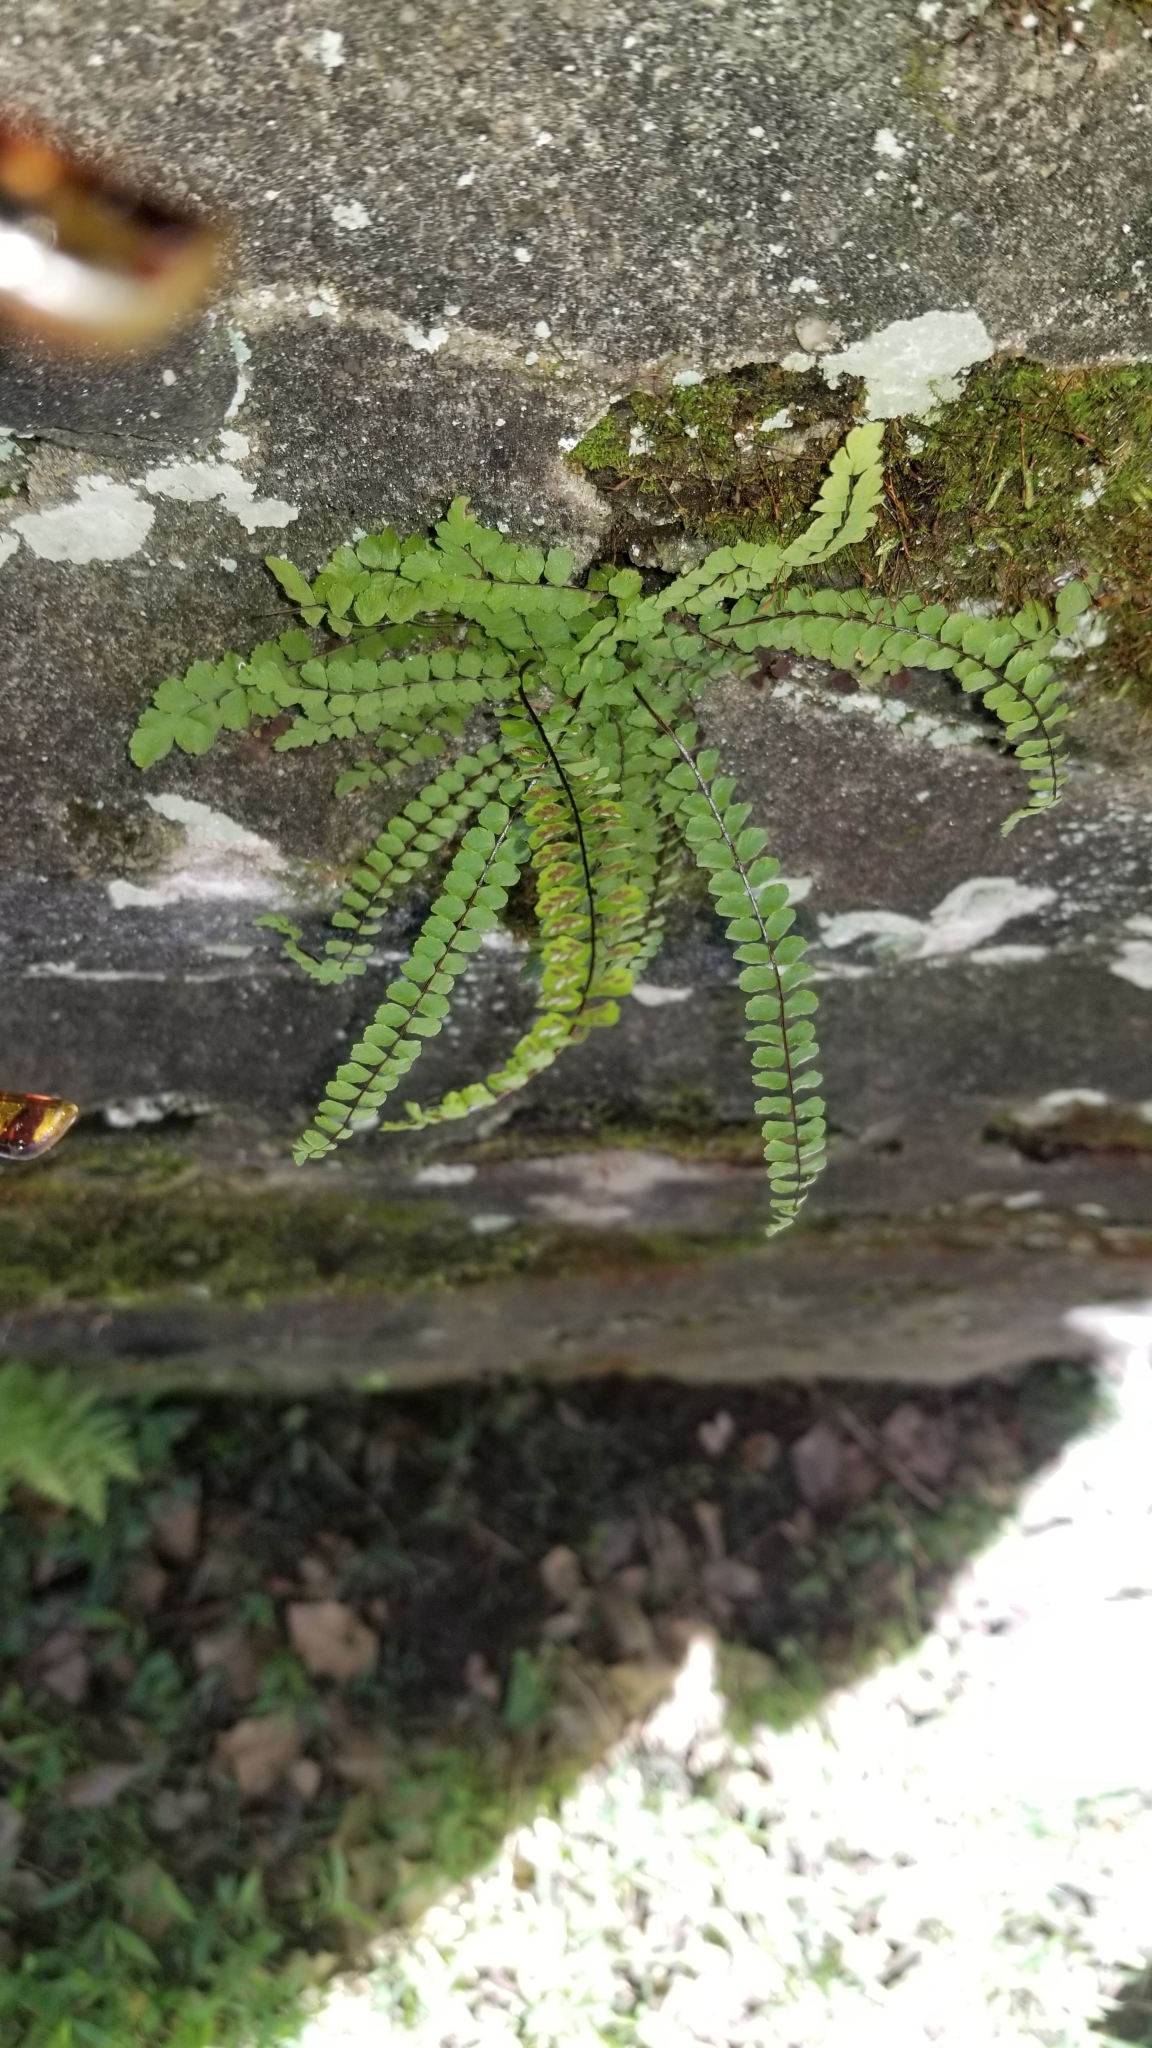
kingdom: Plantae
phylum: Tracheophyta
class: Polypodiopsida
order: Polypodiales
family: Aspleniaceae
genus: Asplenium
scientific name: Asplenium trichomanes
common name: Maidenhair spleenwort
